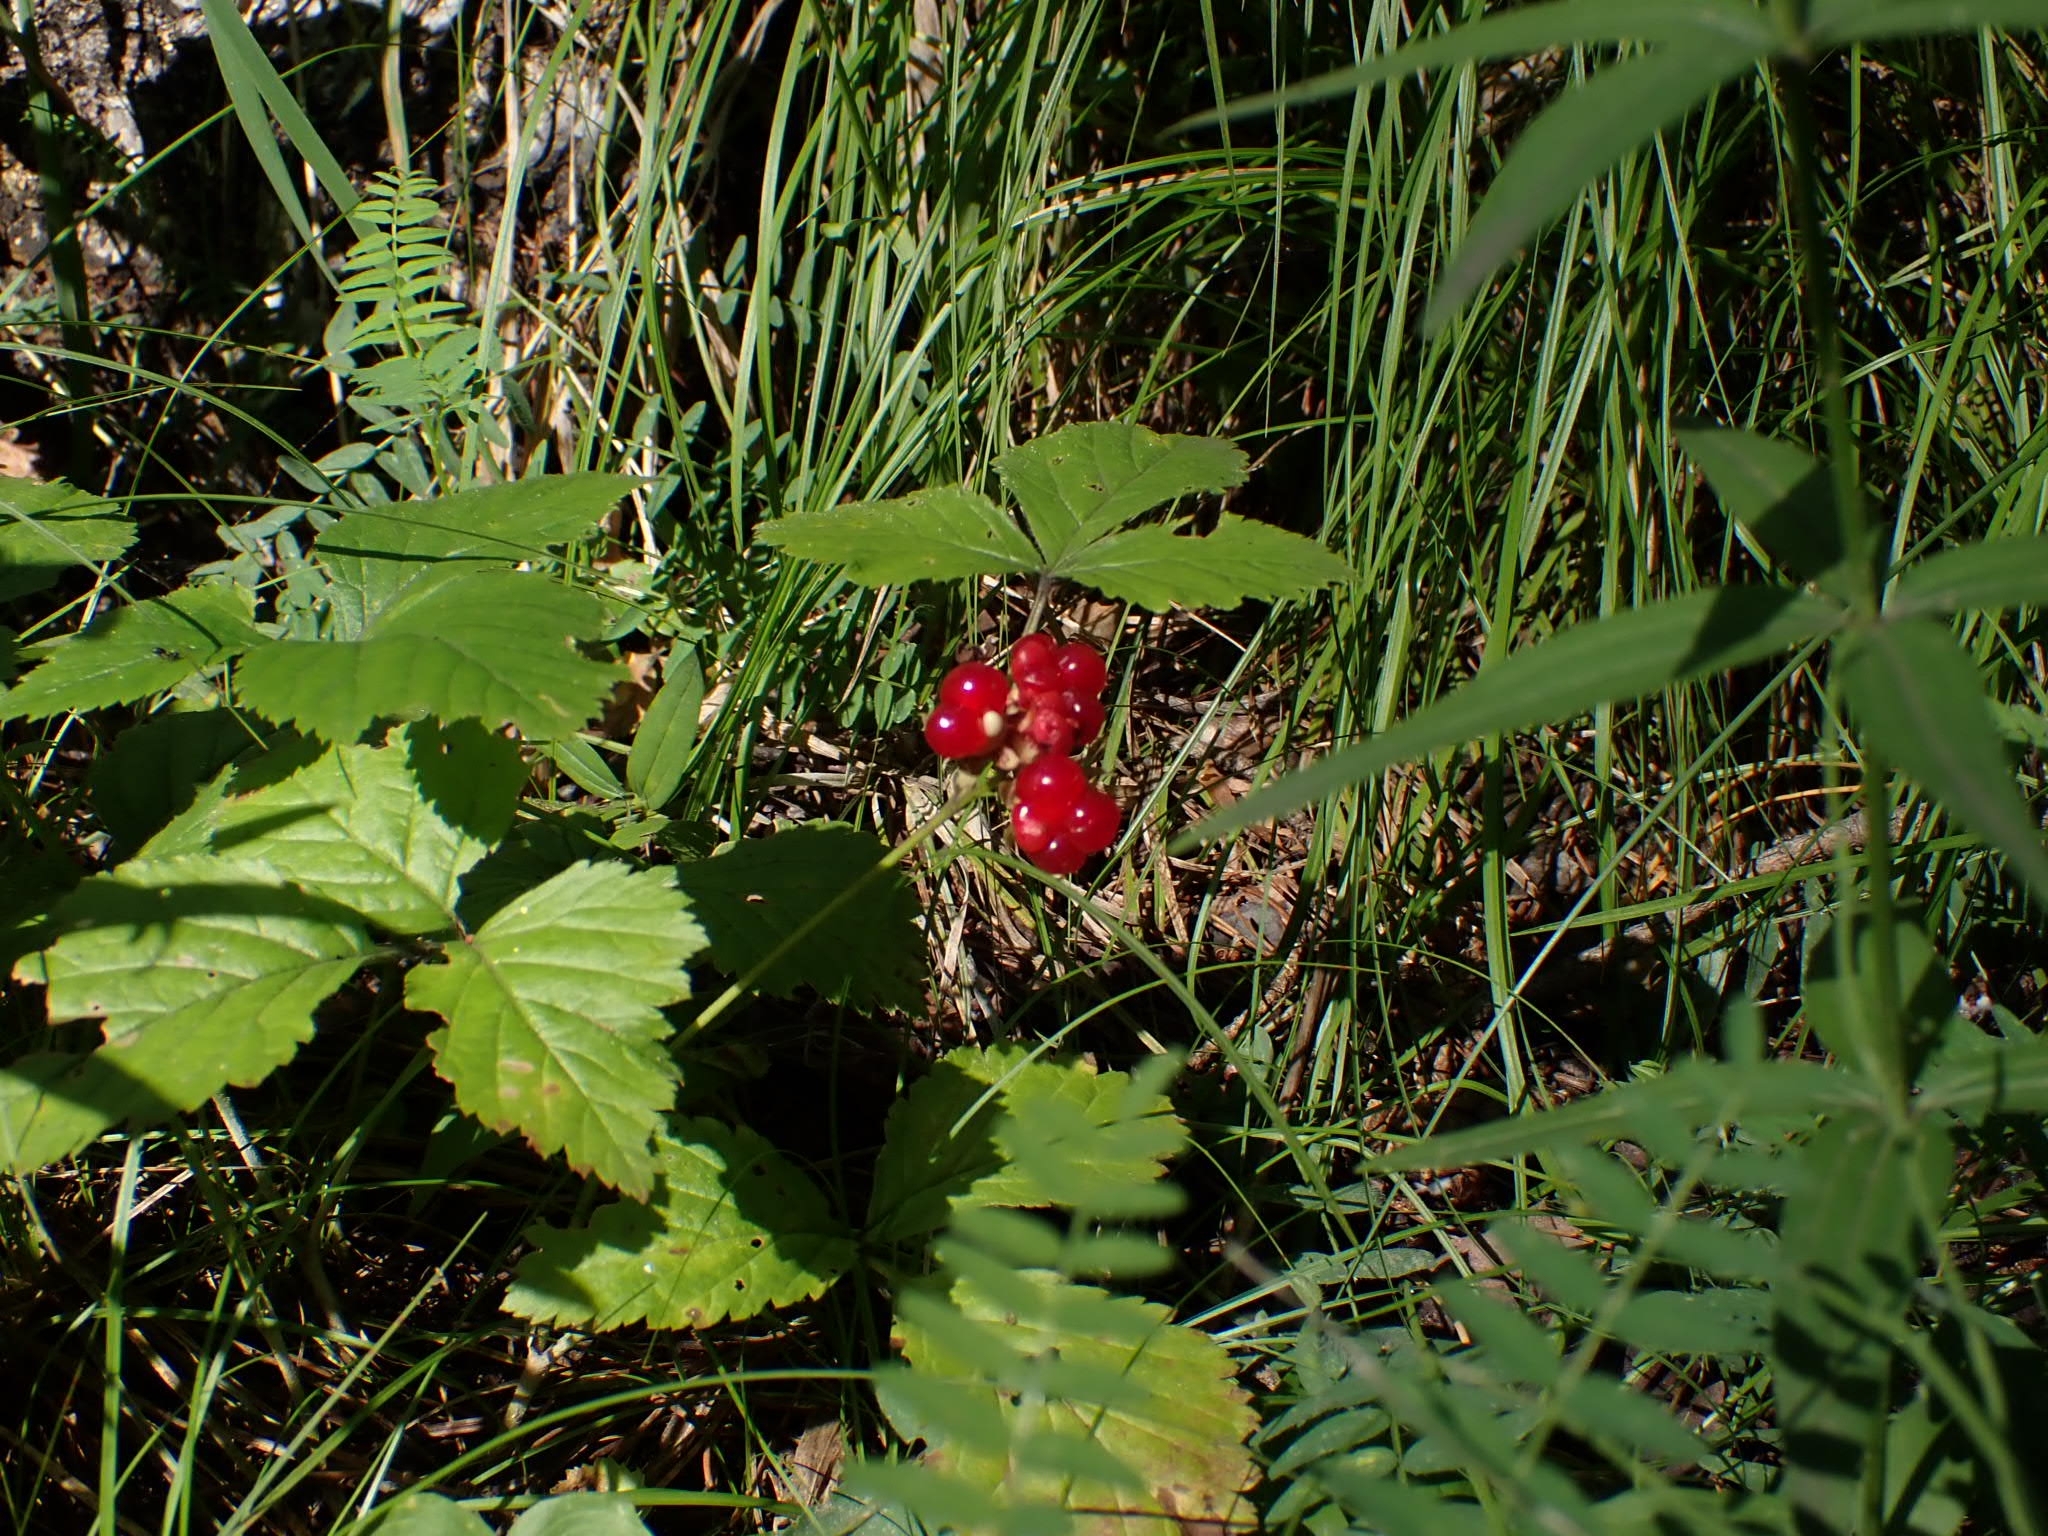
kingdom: Plantae
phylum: Tracheophyta
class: Magnoliopsida
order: Rosales
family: Rosaceae
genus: Rubus
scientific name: Rubus saxatilis
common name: Stone bramble
